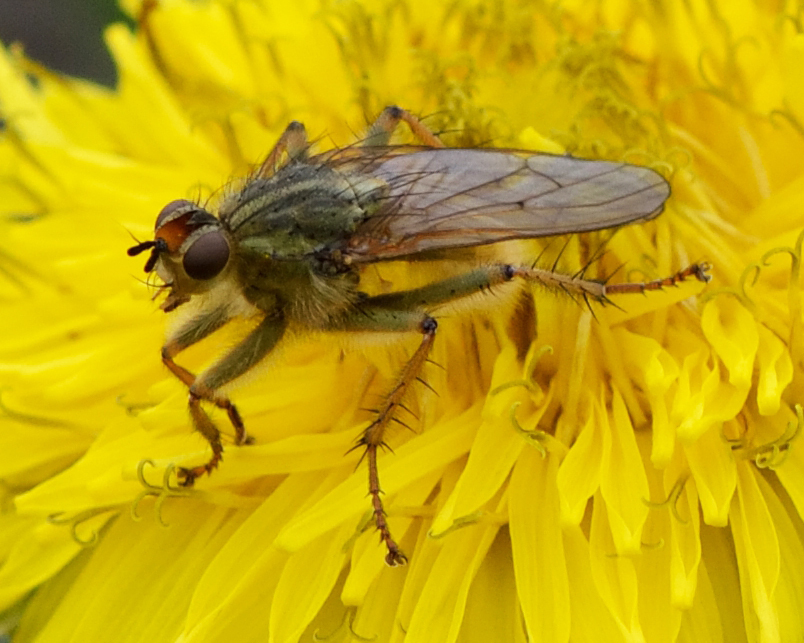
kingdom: Animalia
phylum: Arthropoda
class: Insecta
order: Diptera
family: Scathophagidae
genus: Scathophaga
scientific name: Scathophaga stercoraria
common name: Yellow dung fly
